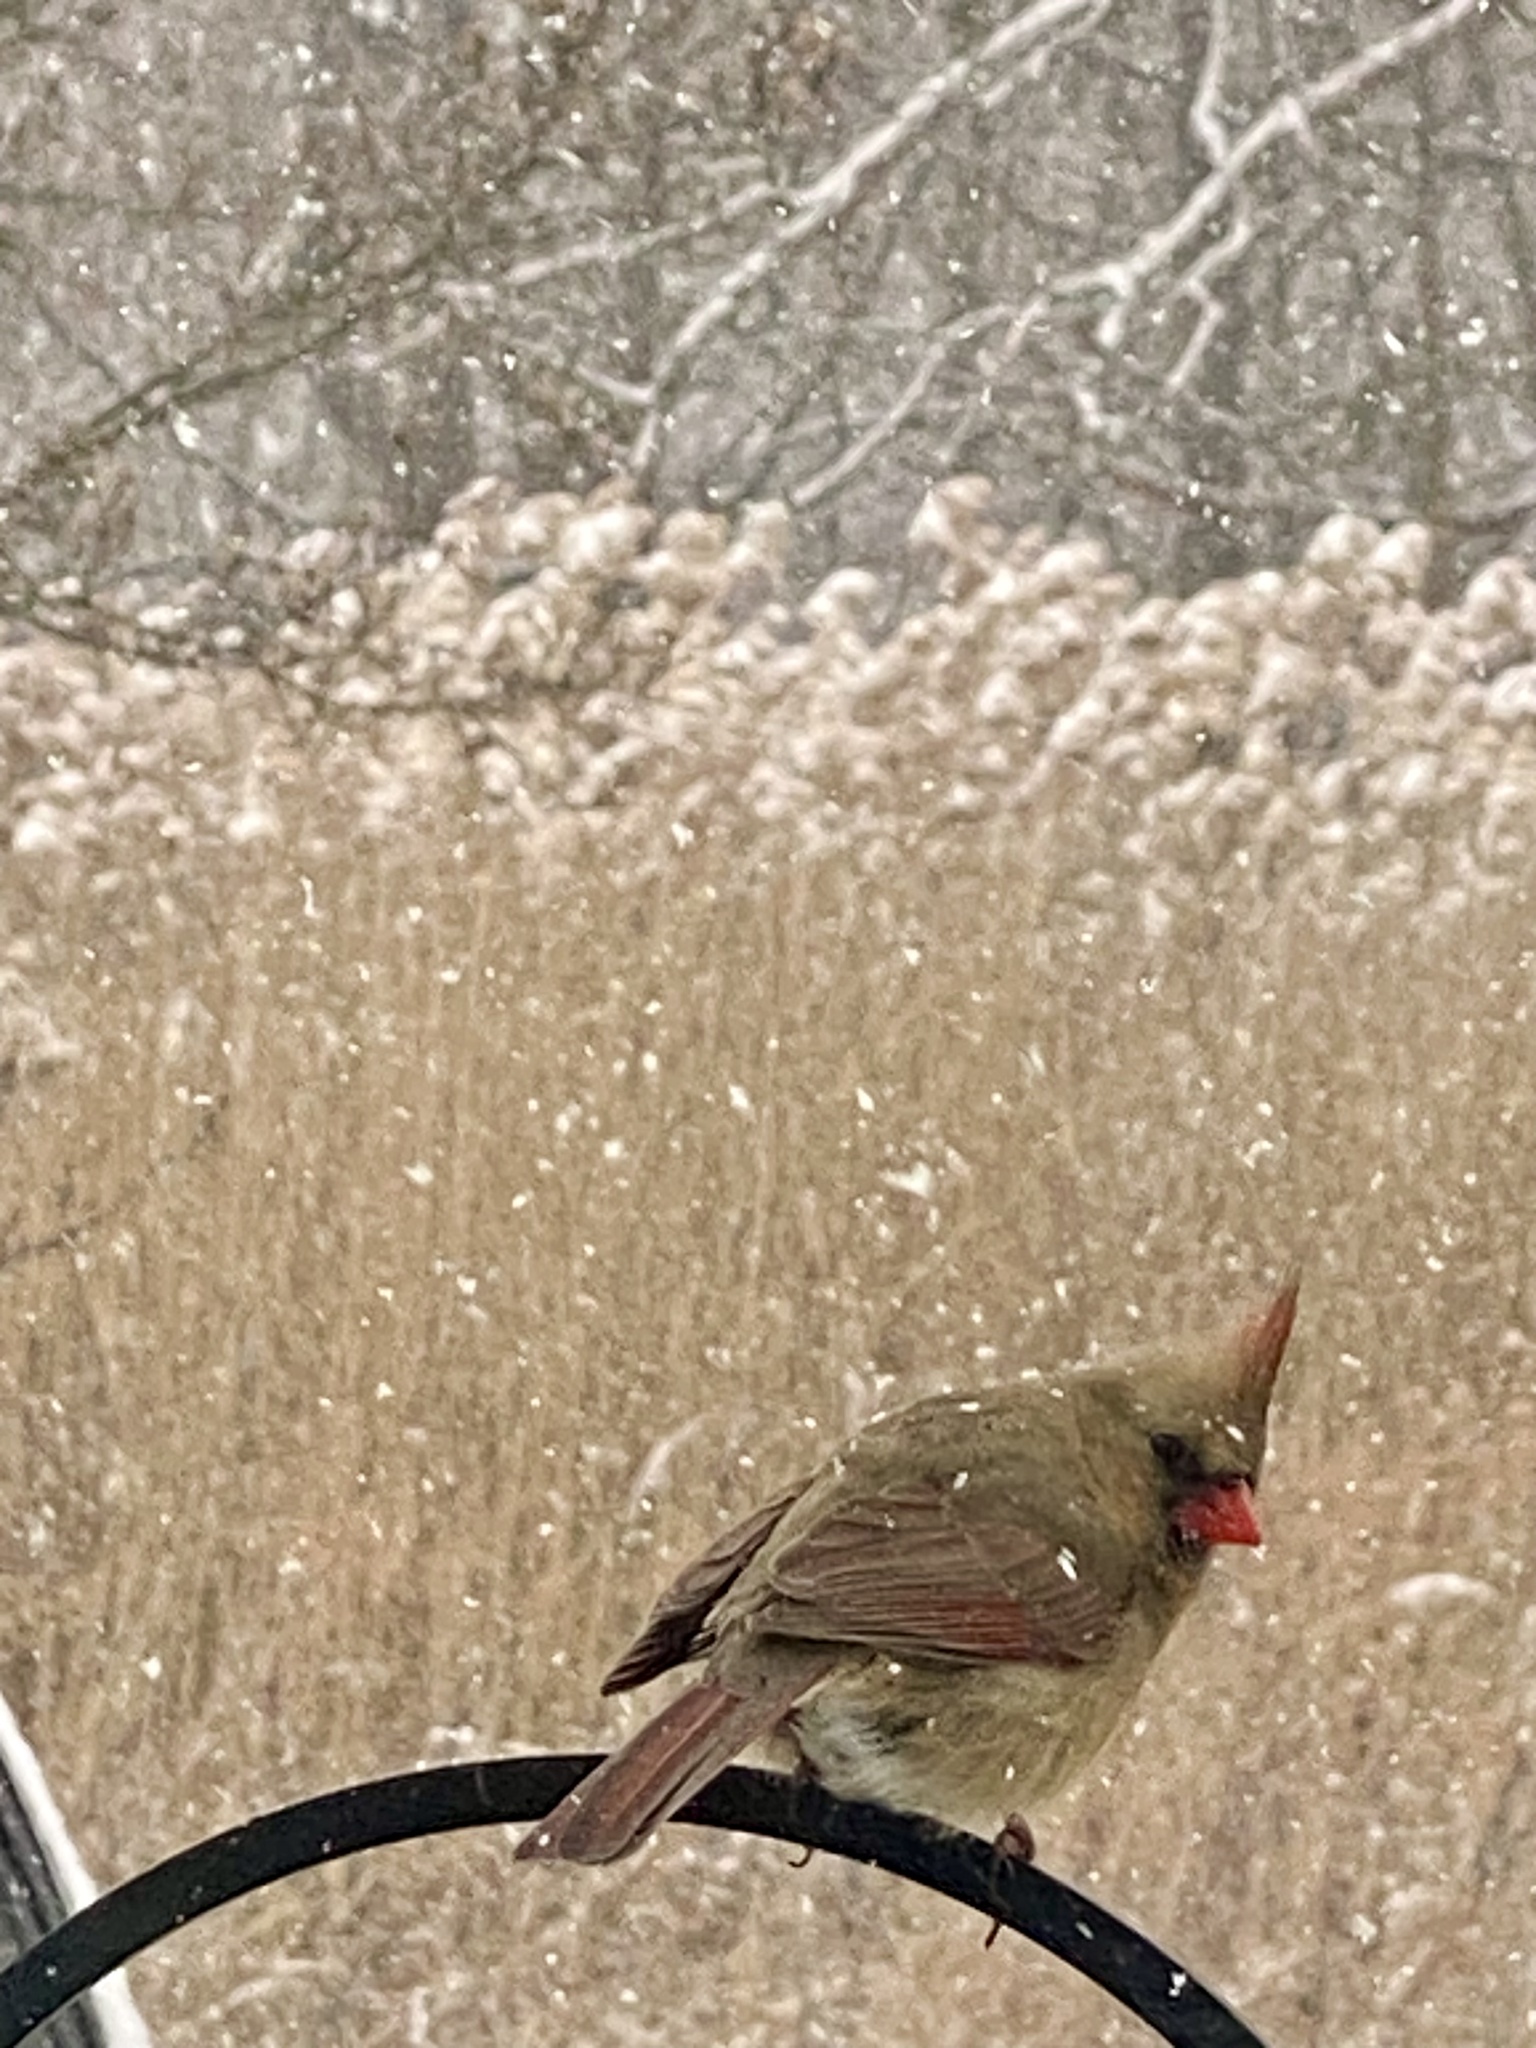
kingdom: Animalia
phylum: Chordata
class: Aves
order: Passeriformes
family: Cardinalidae
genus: Cardinalis
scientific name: Cardinalis cardinalis
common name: Northern cardinal
